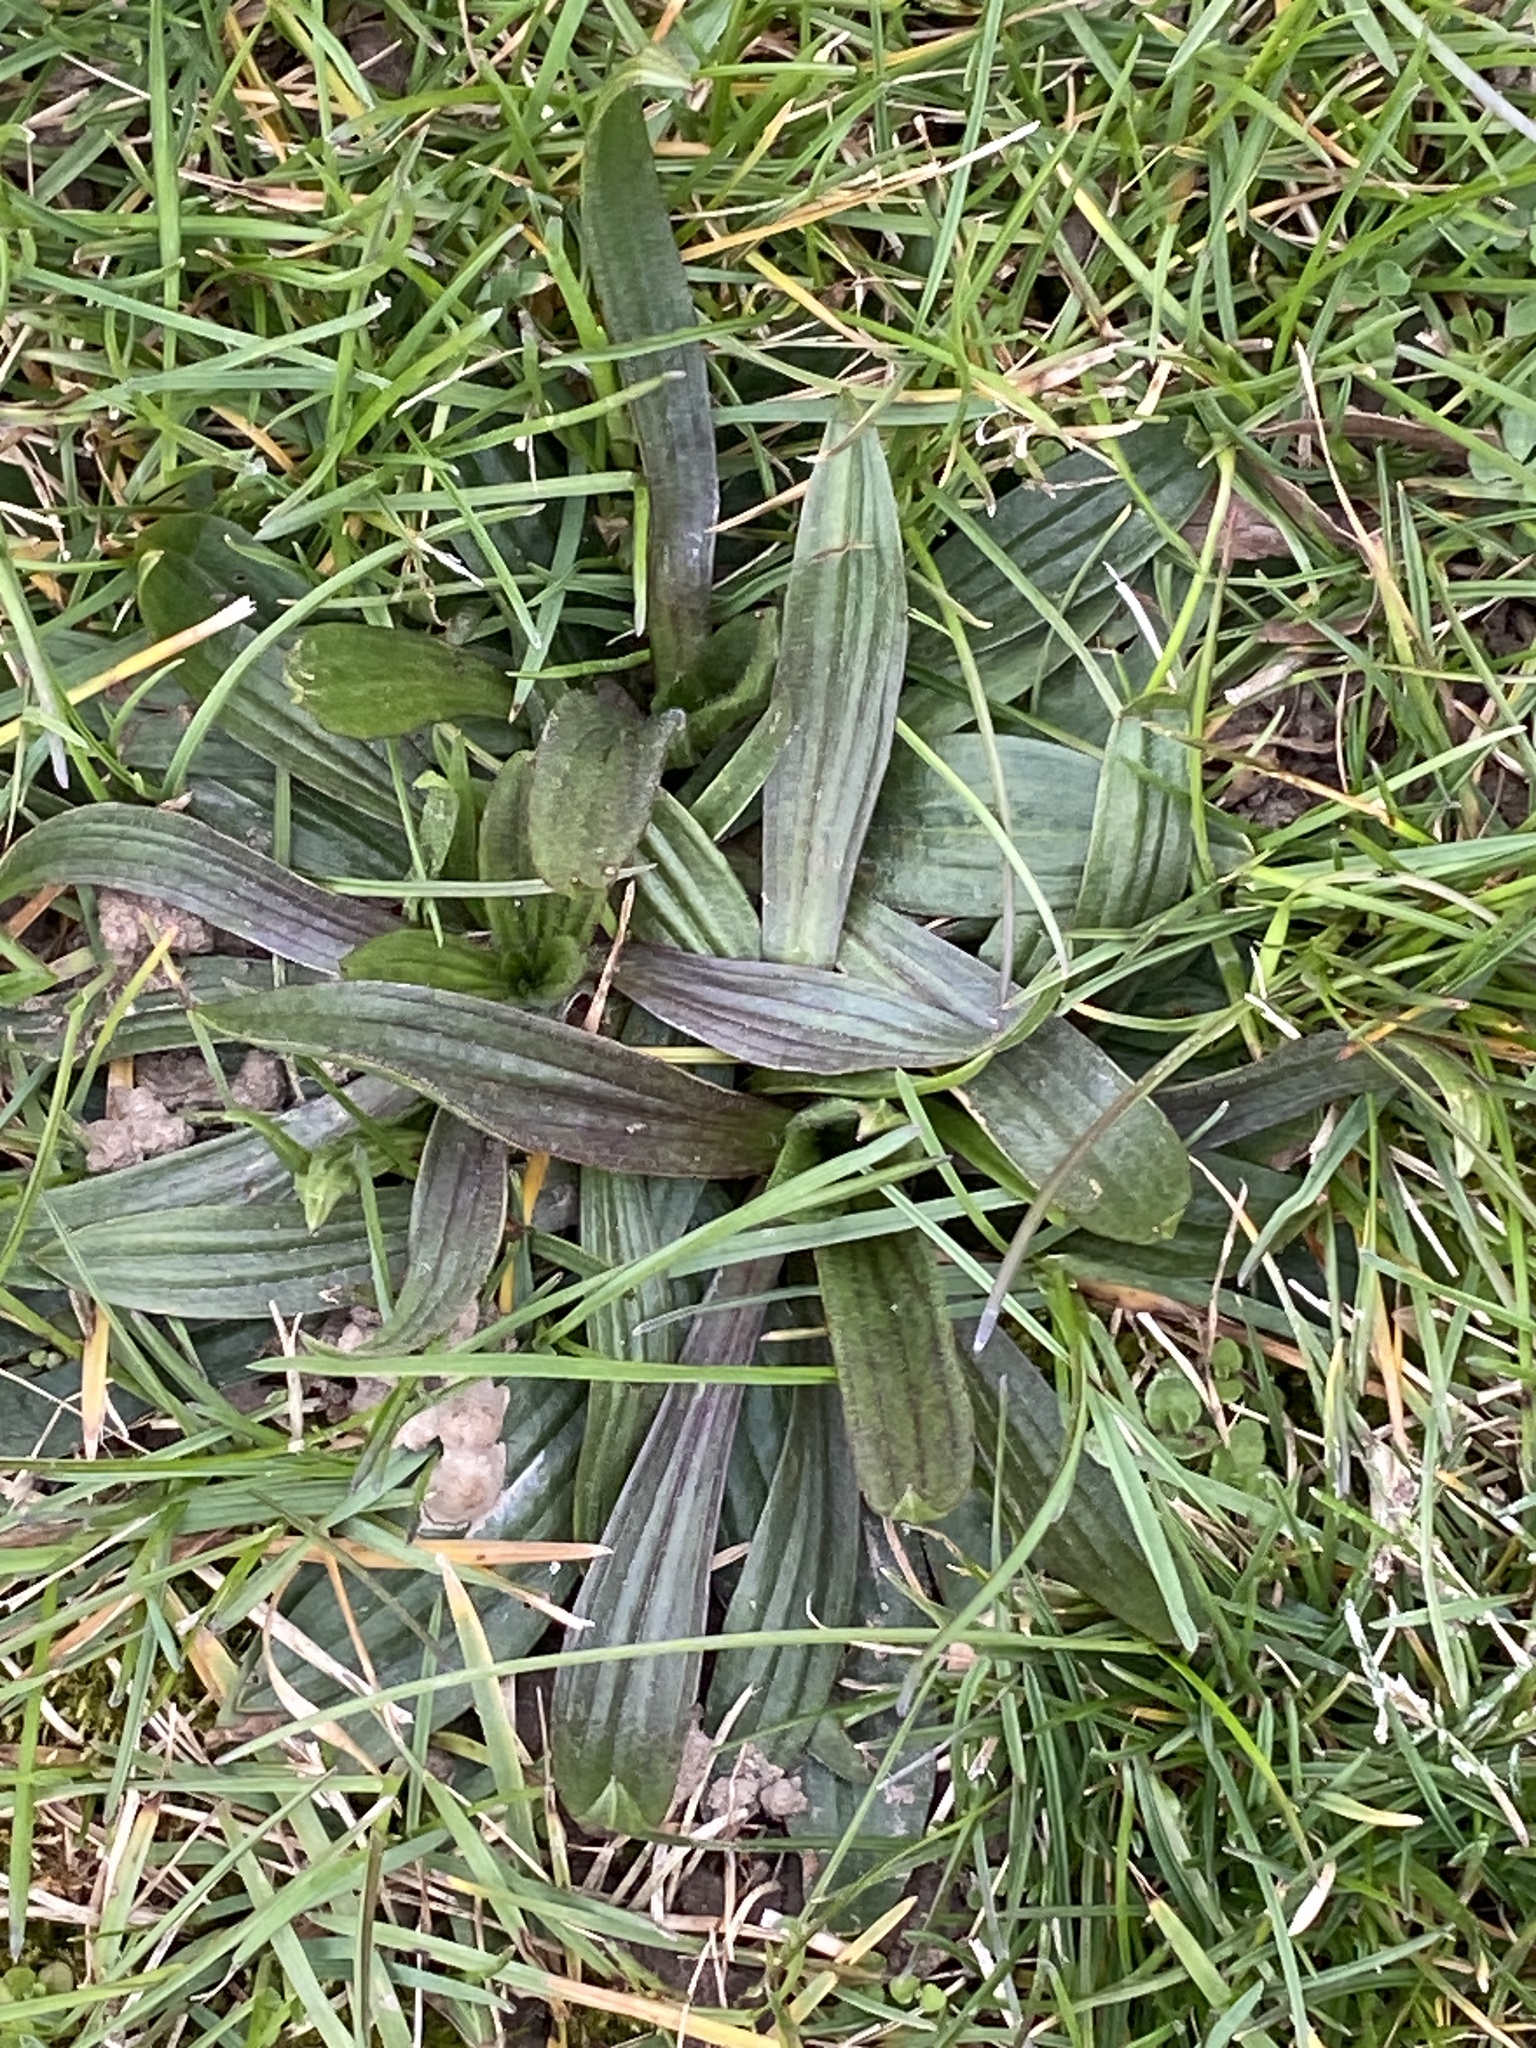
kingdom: Plantae
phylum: Tracheophyta
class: Magnoliopsida
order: Lamiales
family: Plantaginaceae
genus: Plantago
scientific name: Plantago lanceolata
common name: Ribwort plantain
